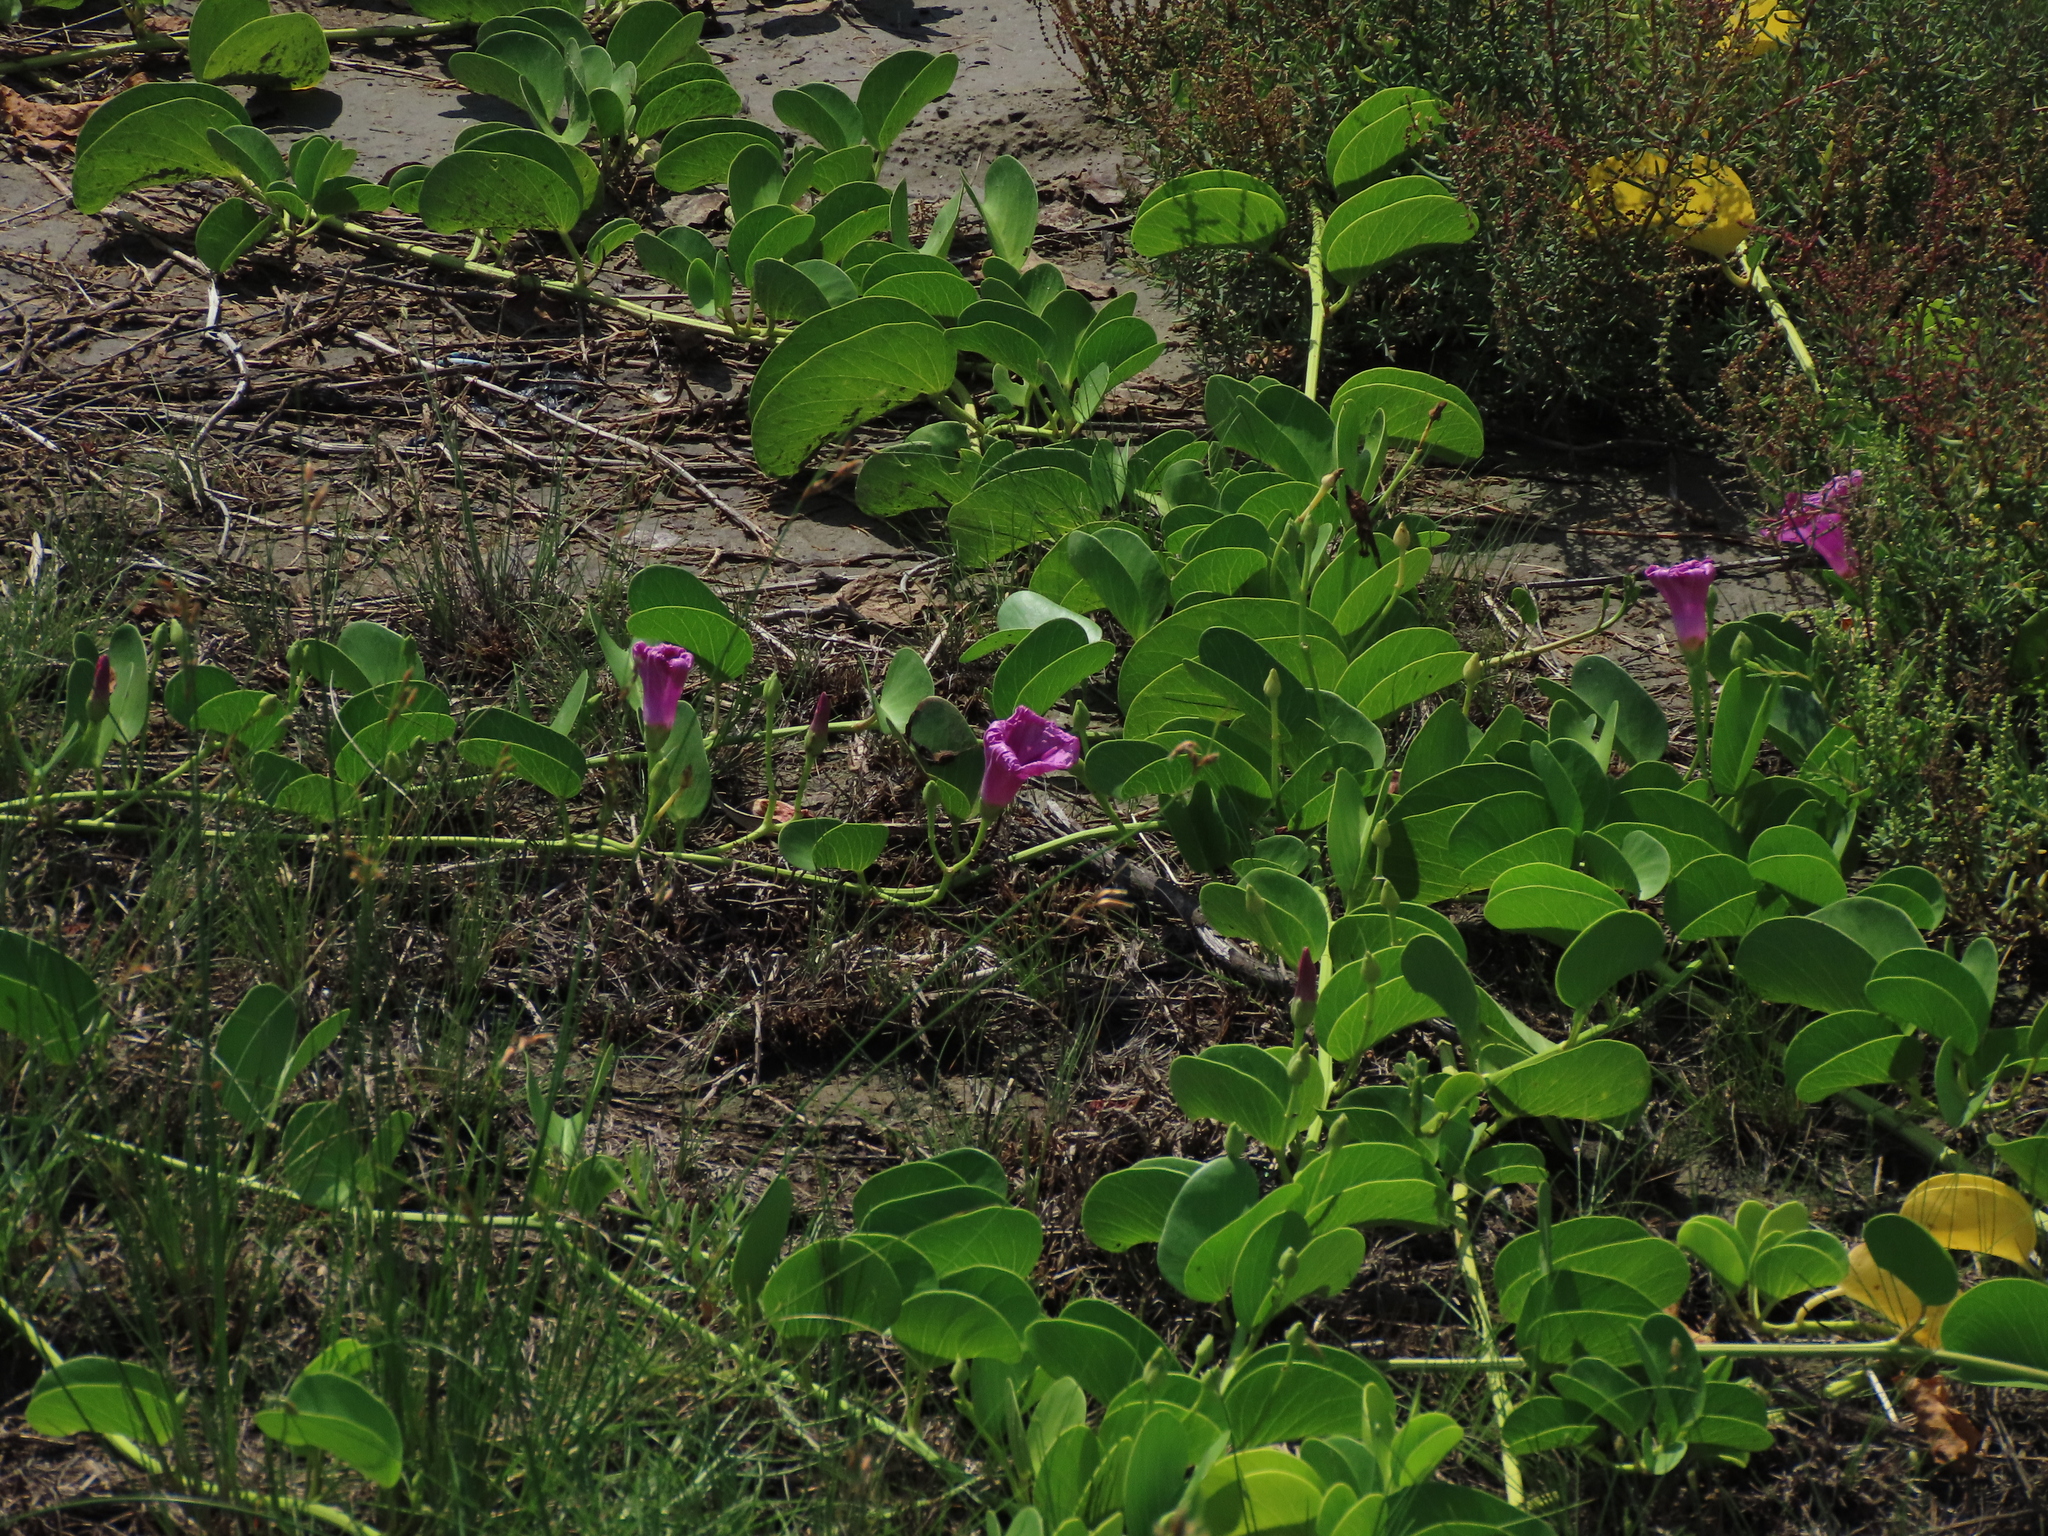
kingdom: Plantae
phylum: Tracheophyta
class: Magnoliopsida
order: Solanales
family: Convolvulaceae
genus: Ipomoea
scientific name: Ipomoea pes-caprae
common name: Beach morning glory
